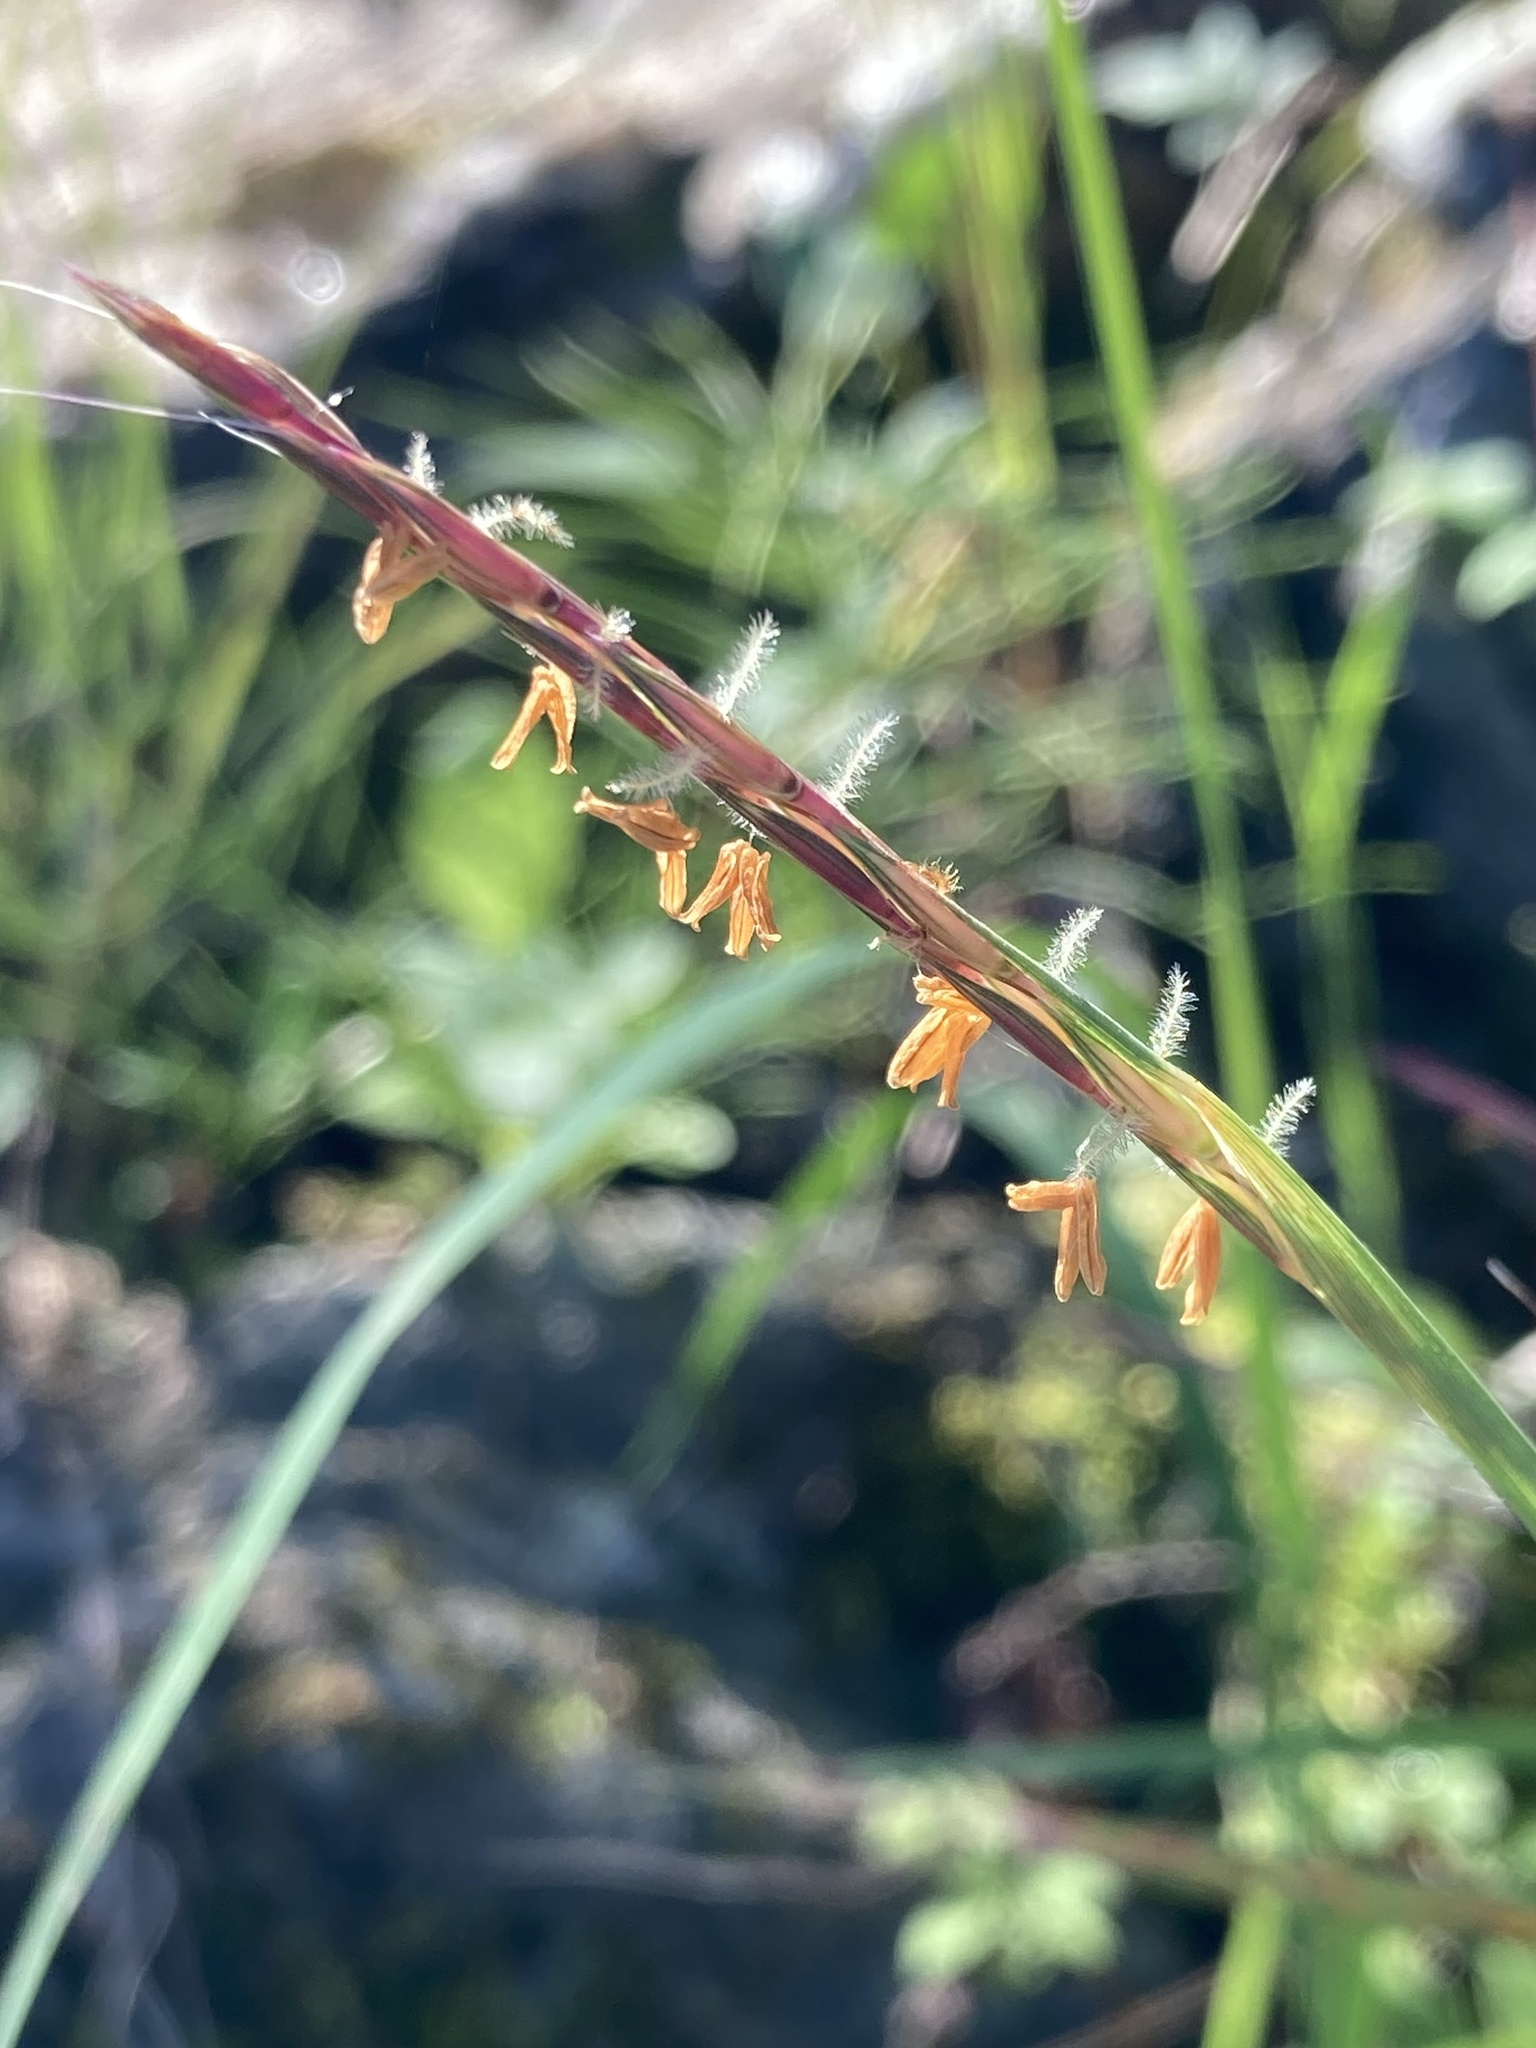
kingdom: Plantae
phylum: Tracheophyta
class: Liliopsida
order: Poales
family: Poaceae
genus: Andropogon
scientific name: Andropogon gerardi
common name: Big bluestem
